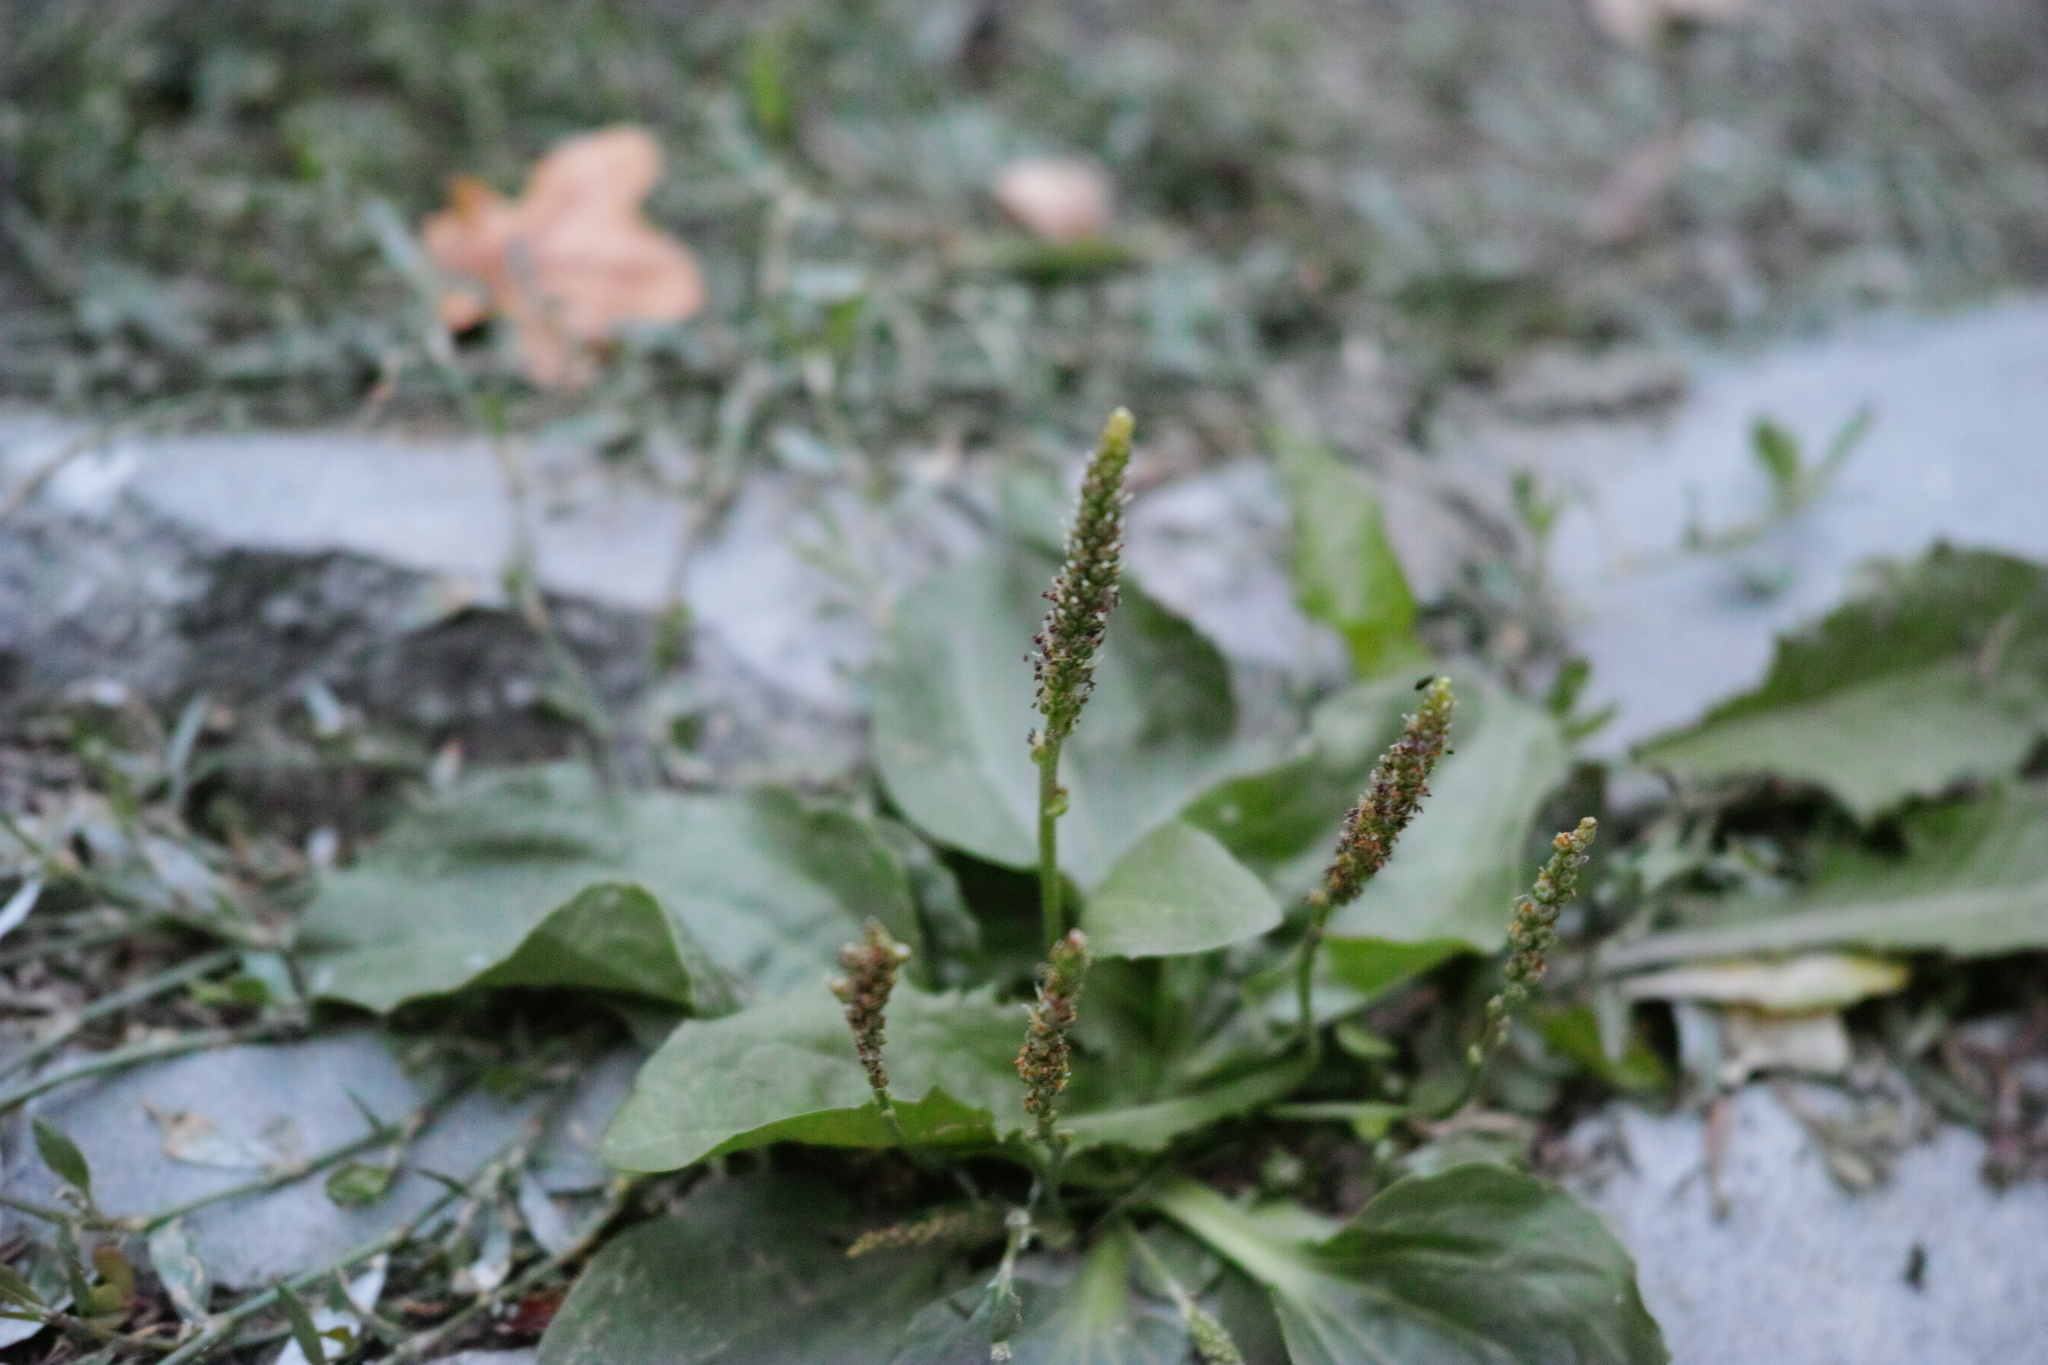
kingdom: Plantae
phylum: Tracheophyta
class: Magnoliopsida
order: Lamiales
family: Plantaginaceae
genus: Plantago
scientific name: Plantago major
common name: Common plantain
